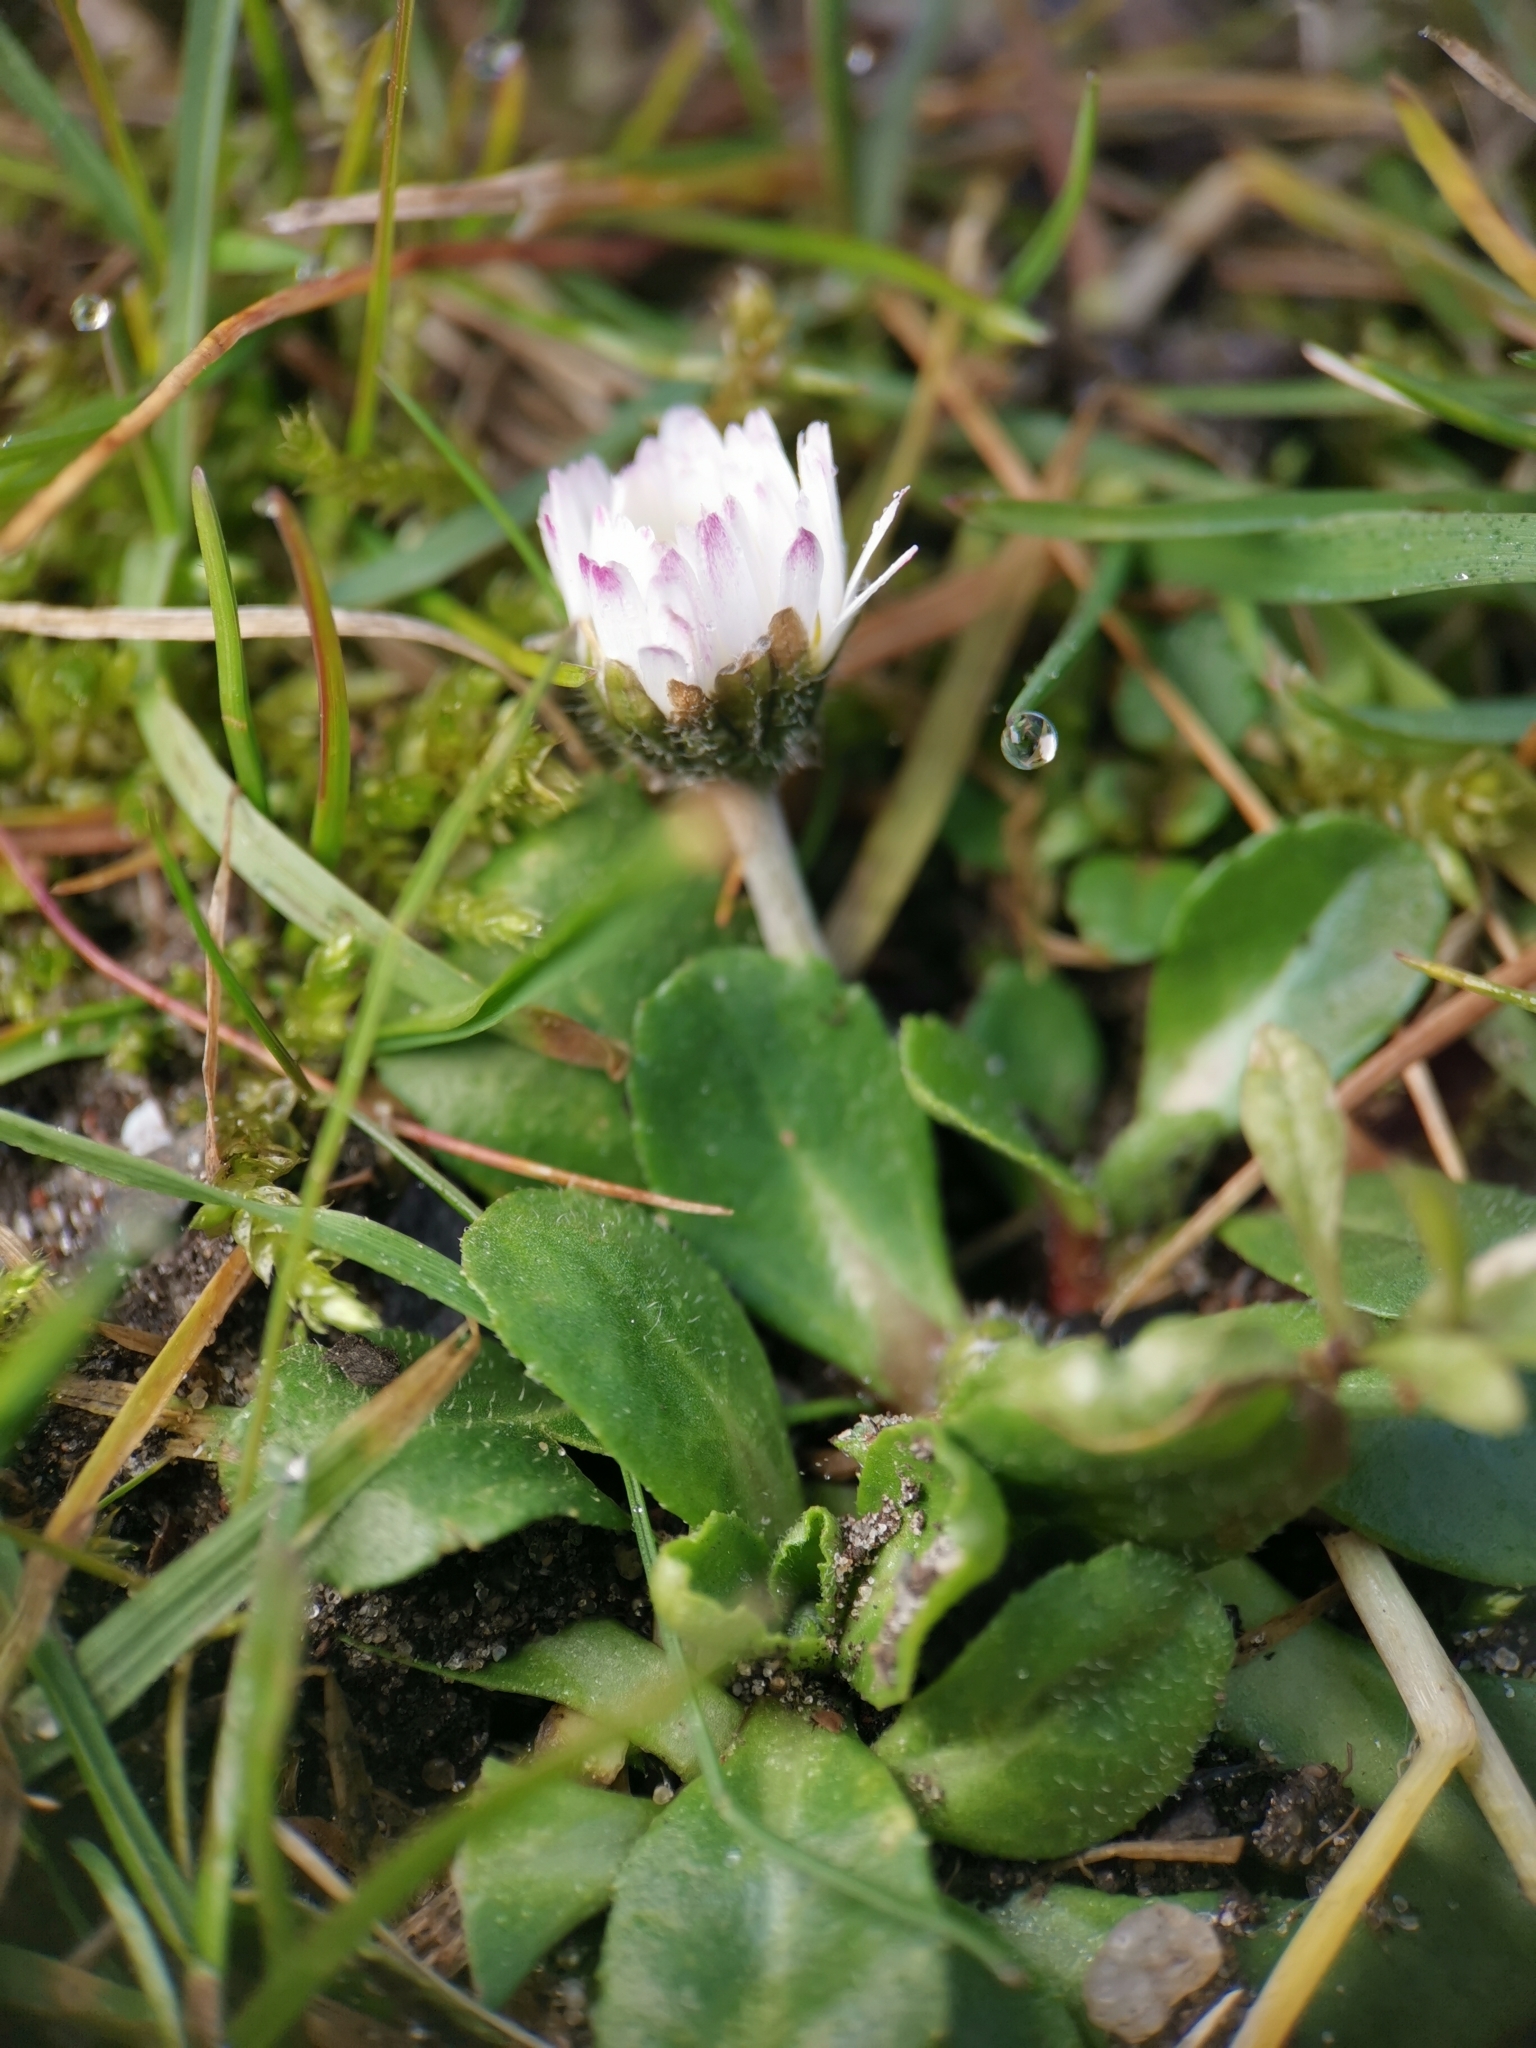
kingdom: Plantae
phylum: Tracheophyta
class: Magnoliopsida
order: Asterales
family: Asteraceae
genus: Bellis
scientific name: Bellis perennis
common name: Lawndaisy
